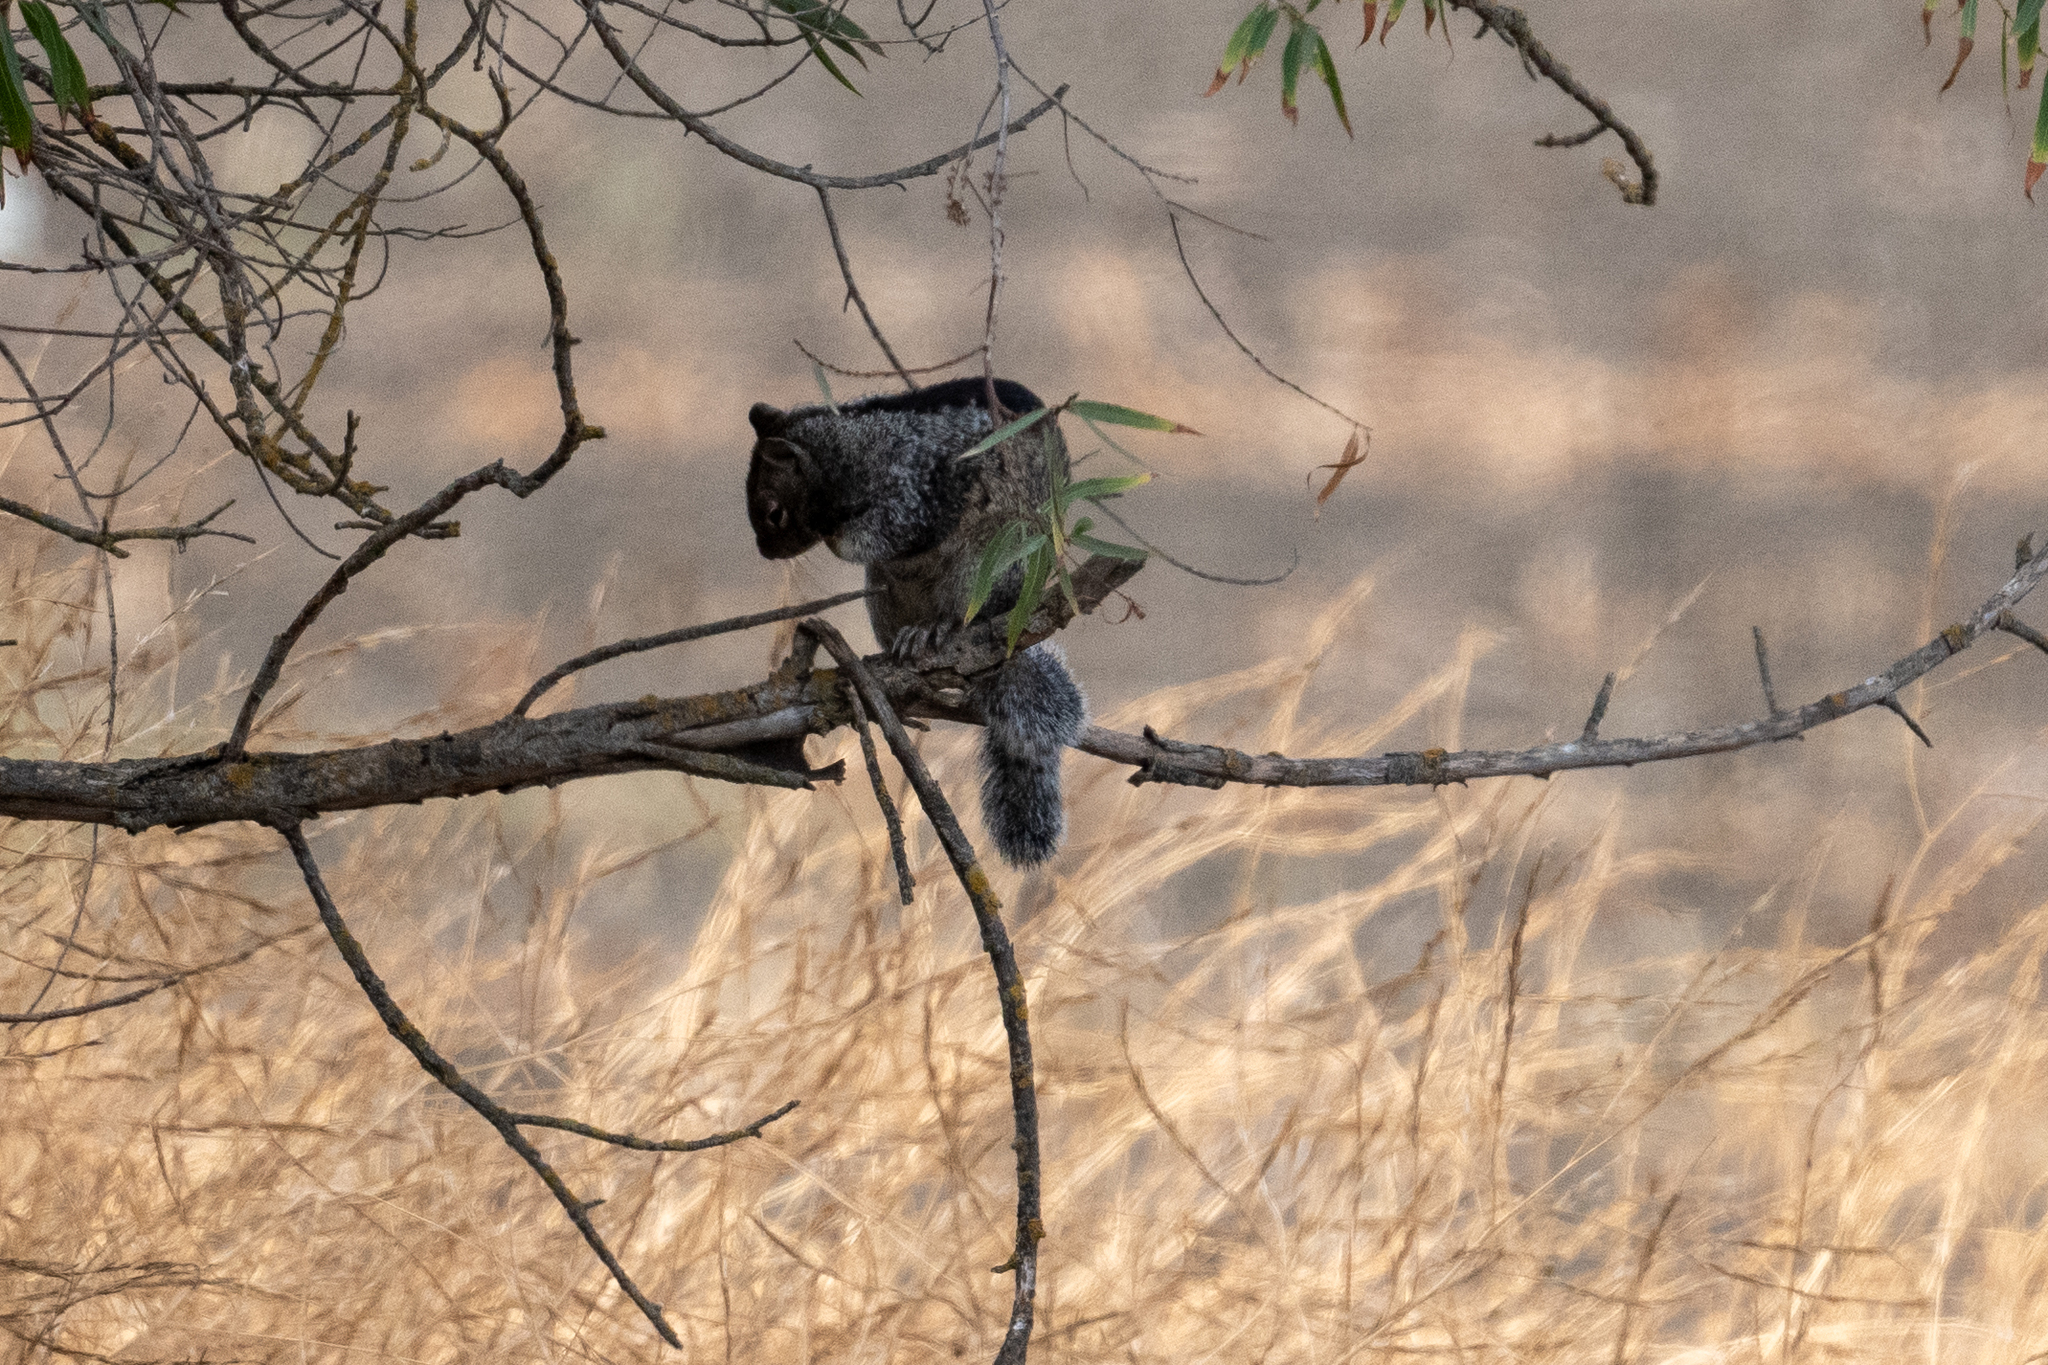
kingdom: Animalia
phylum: Chordata
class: Mammalia
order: Rodentia
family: Sciuridae
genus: Otospermophilus
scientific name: Otospermophilus beecheyi
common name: California ground squirrel
